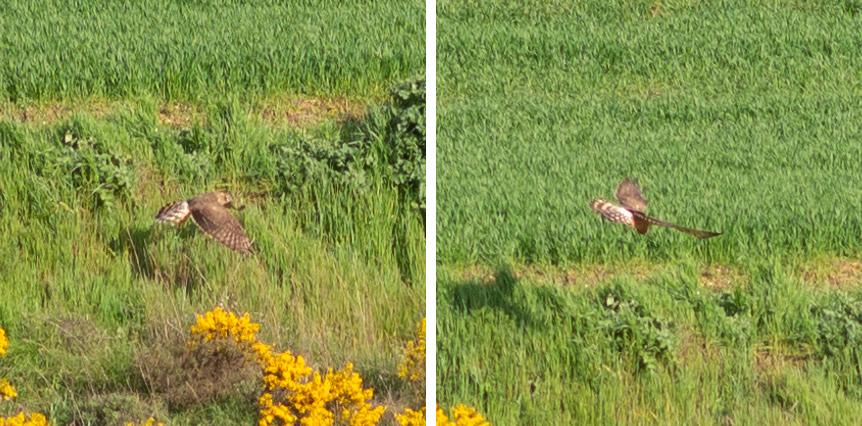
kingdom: Animalia
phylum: Chordata
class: Aves
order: Accipitriformes
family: Accipitridae
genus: Circus
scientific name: Circus pygargus
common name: Montagu's harrier
